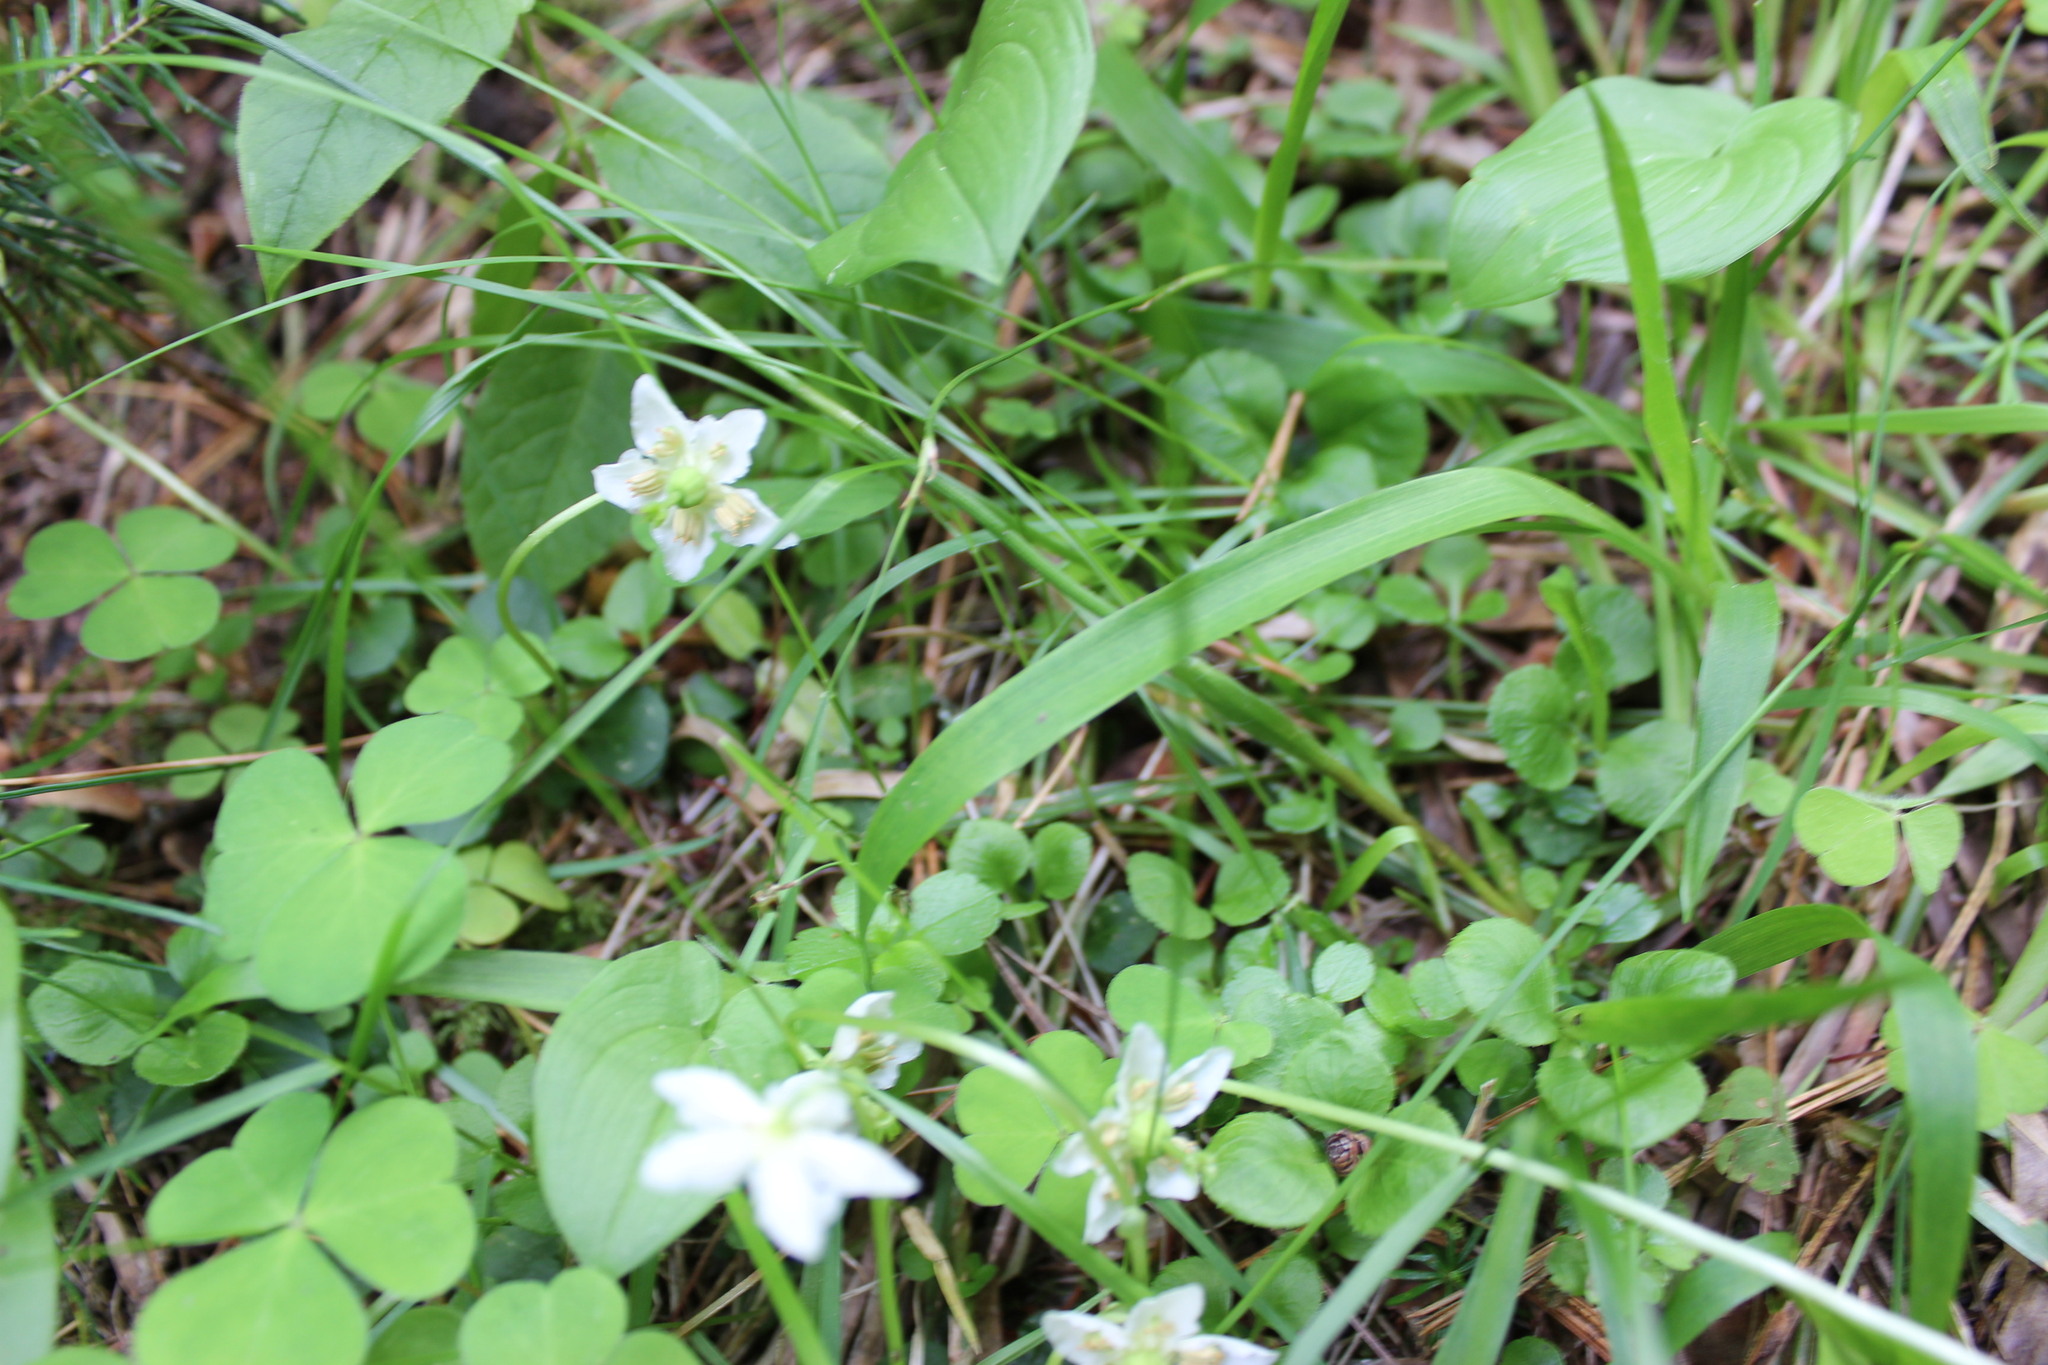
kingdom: Plantae
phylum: Tracheophyta
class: Magnoliopsida
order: Ericales
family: Ericaceae
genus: Moneses
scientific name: Moneses uniflora
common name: One-flowered wintergreen
